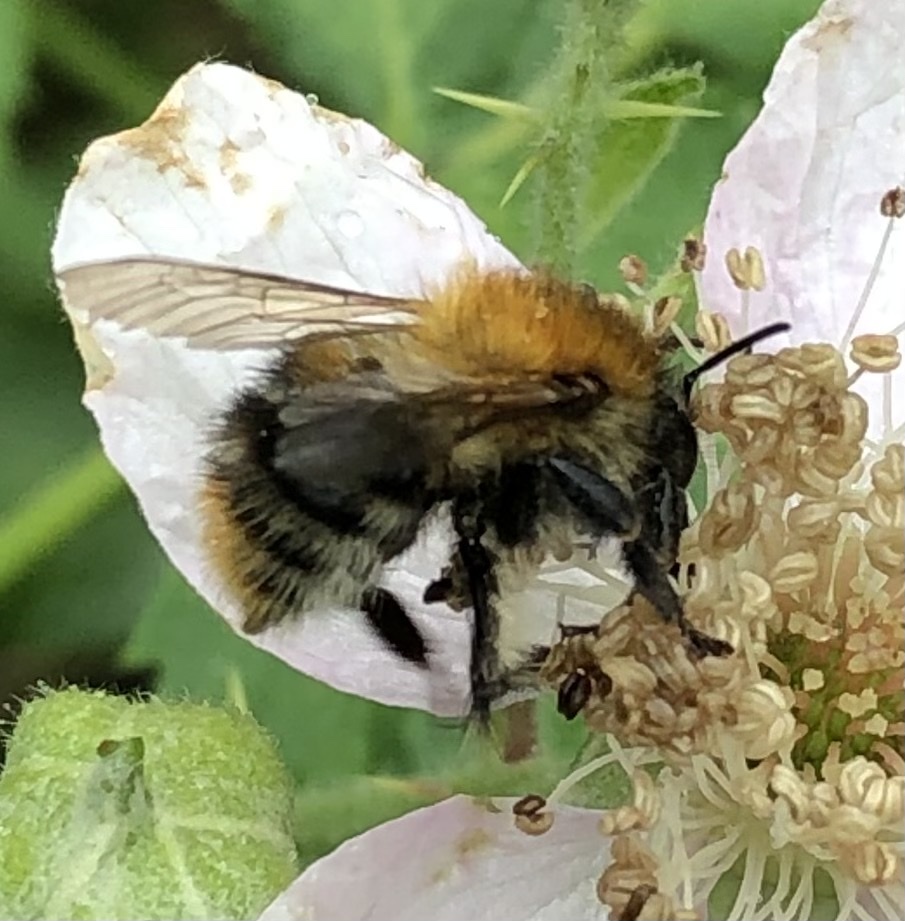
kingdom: Animalia
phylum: Arthropoda
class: Insecta
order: Hymenoptera
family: Apidae
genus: Bombus
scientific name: Bombus pascuorum
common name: Common carder bee
